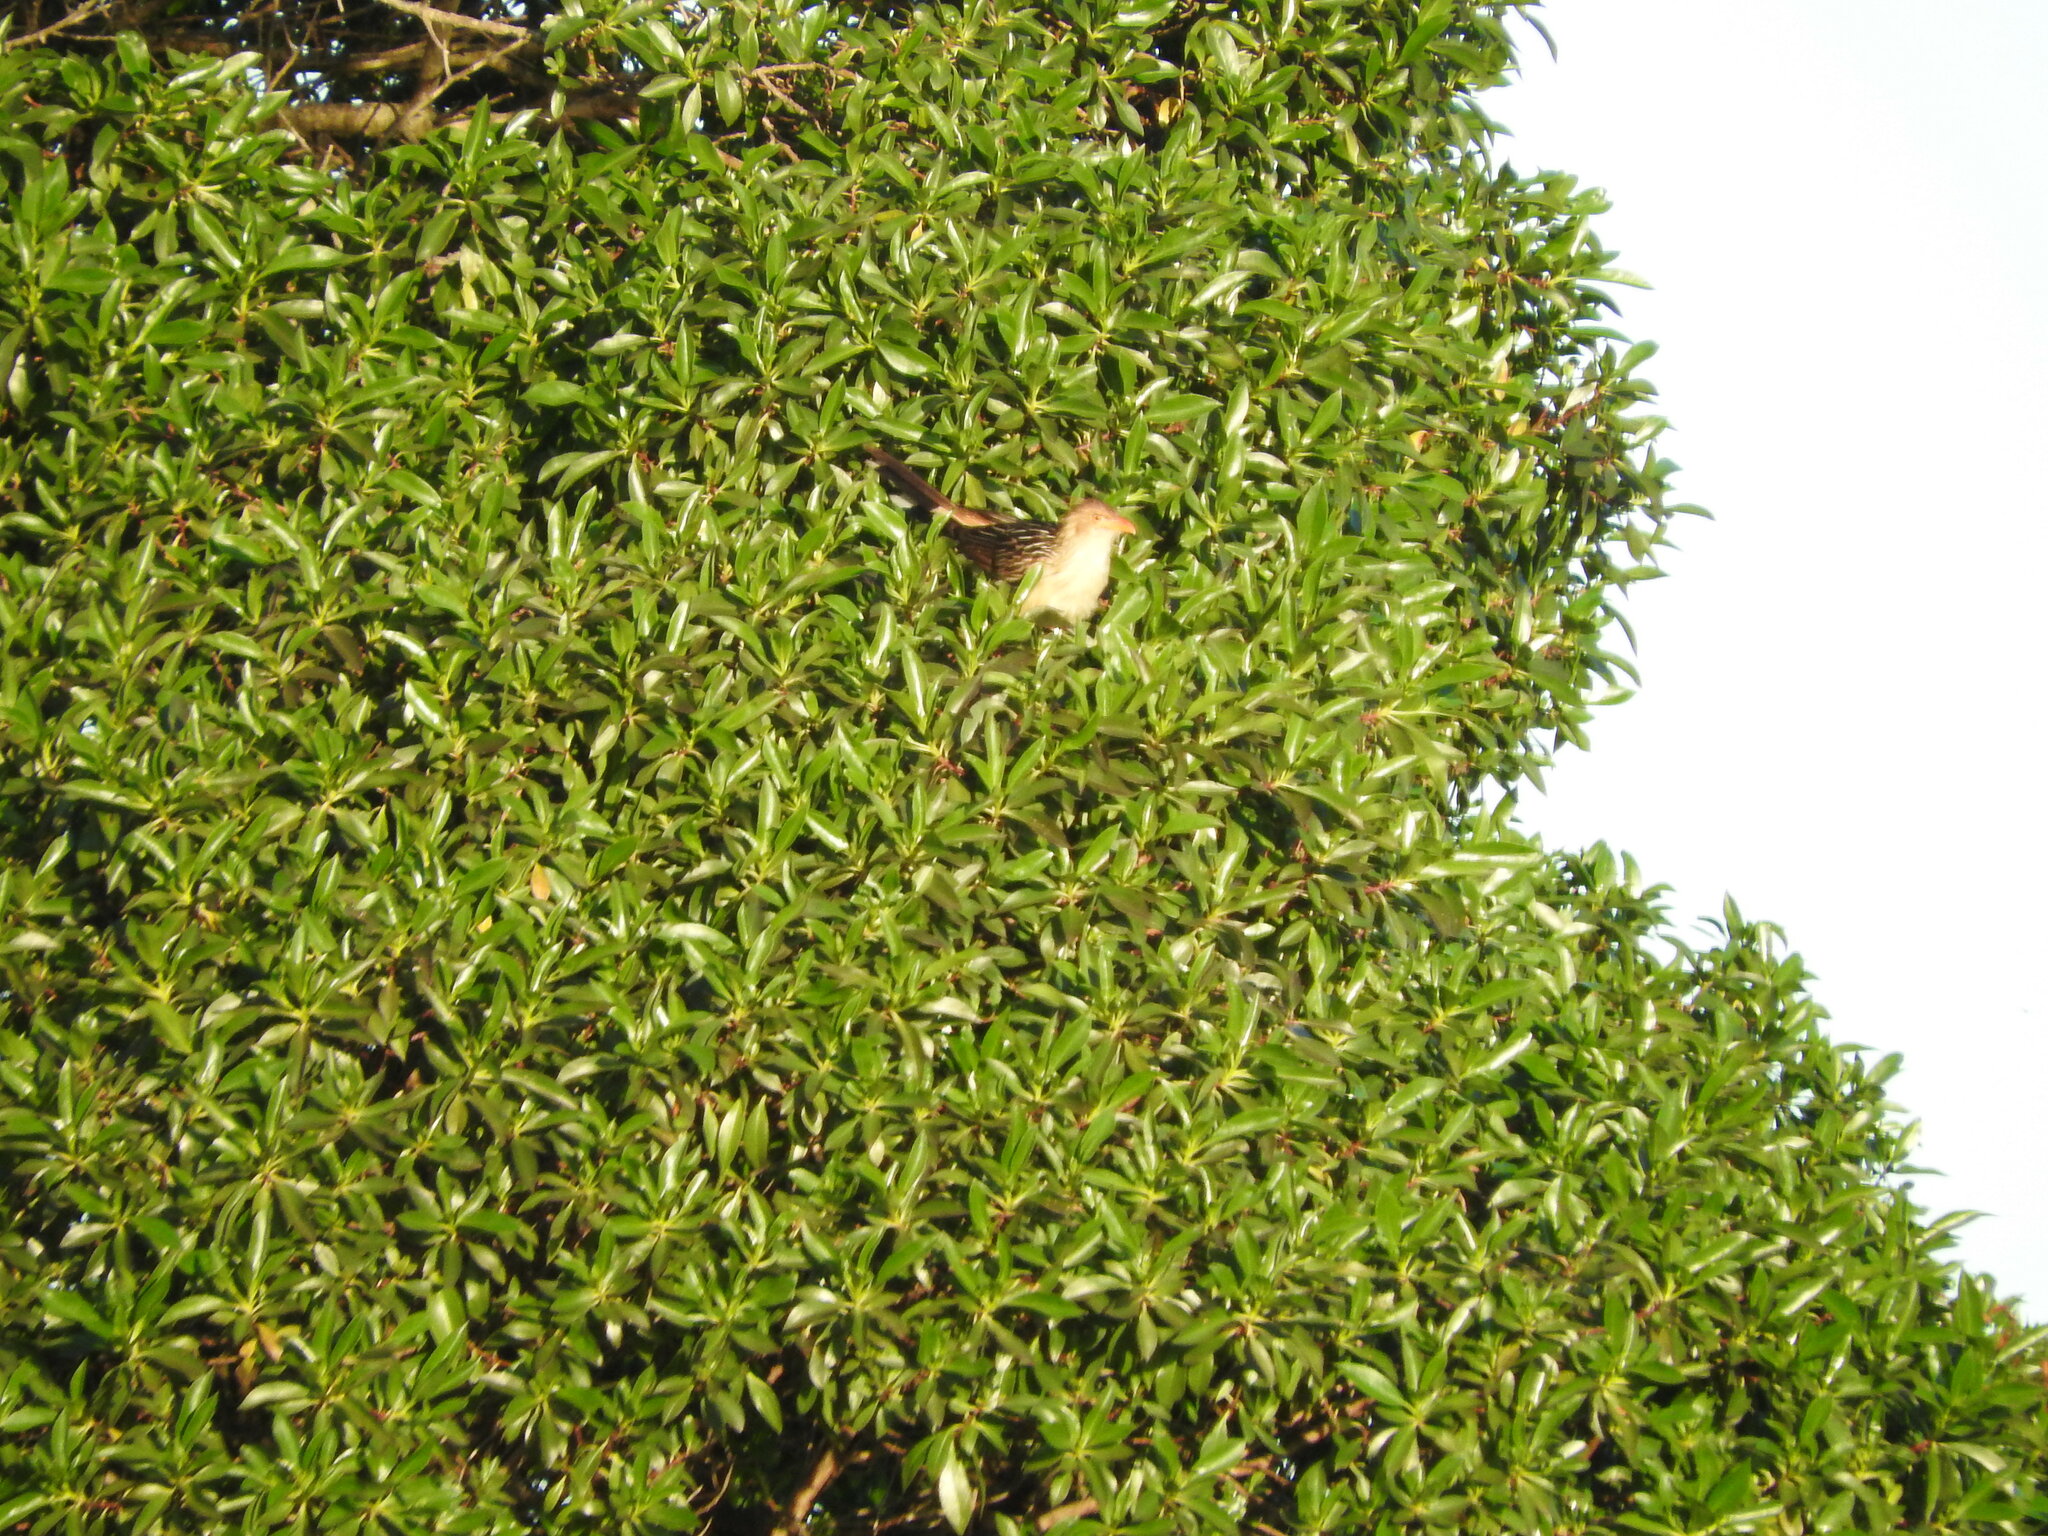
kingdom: Animalia
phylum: Chordata
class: Aves
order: Cuculiformes
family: Cuculidae
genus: Guira
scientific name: Guira guira
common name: Guira cuckoo
